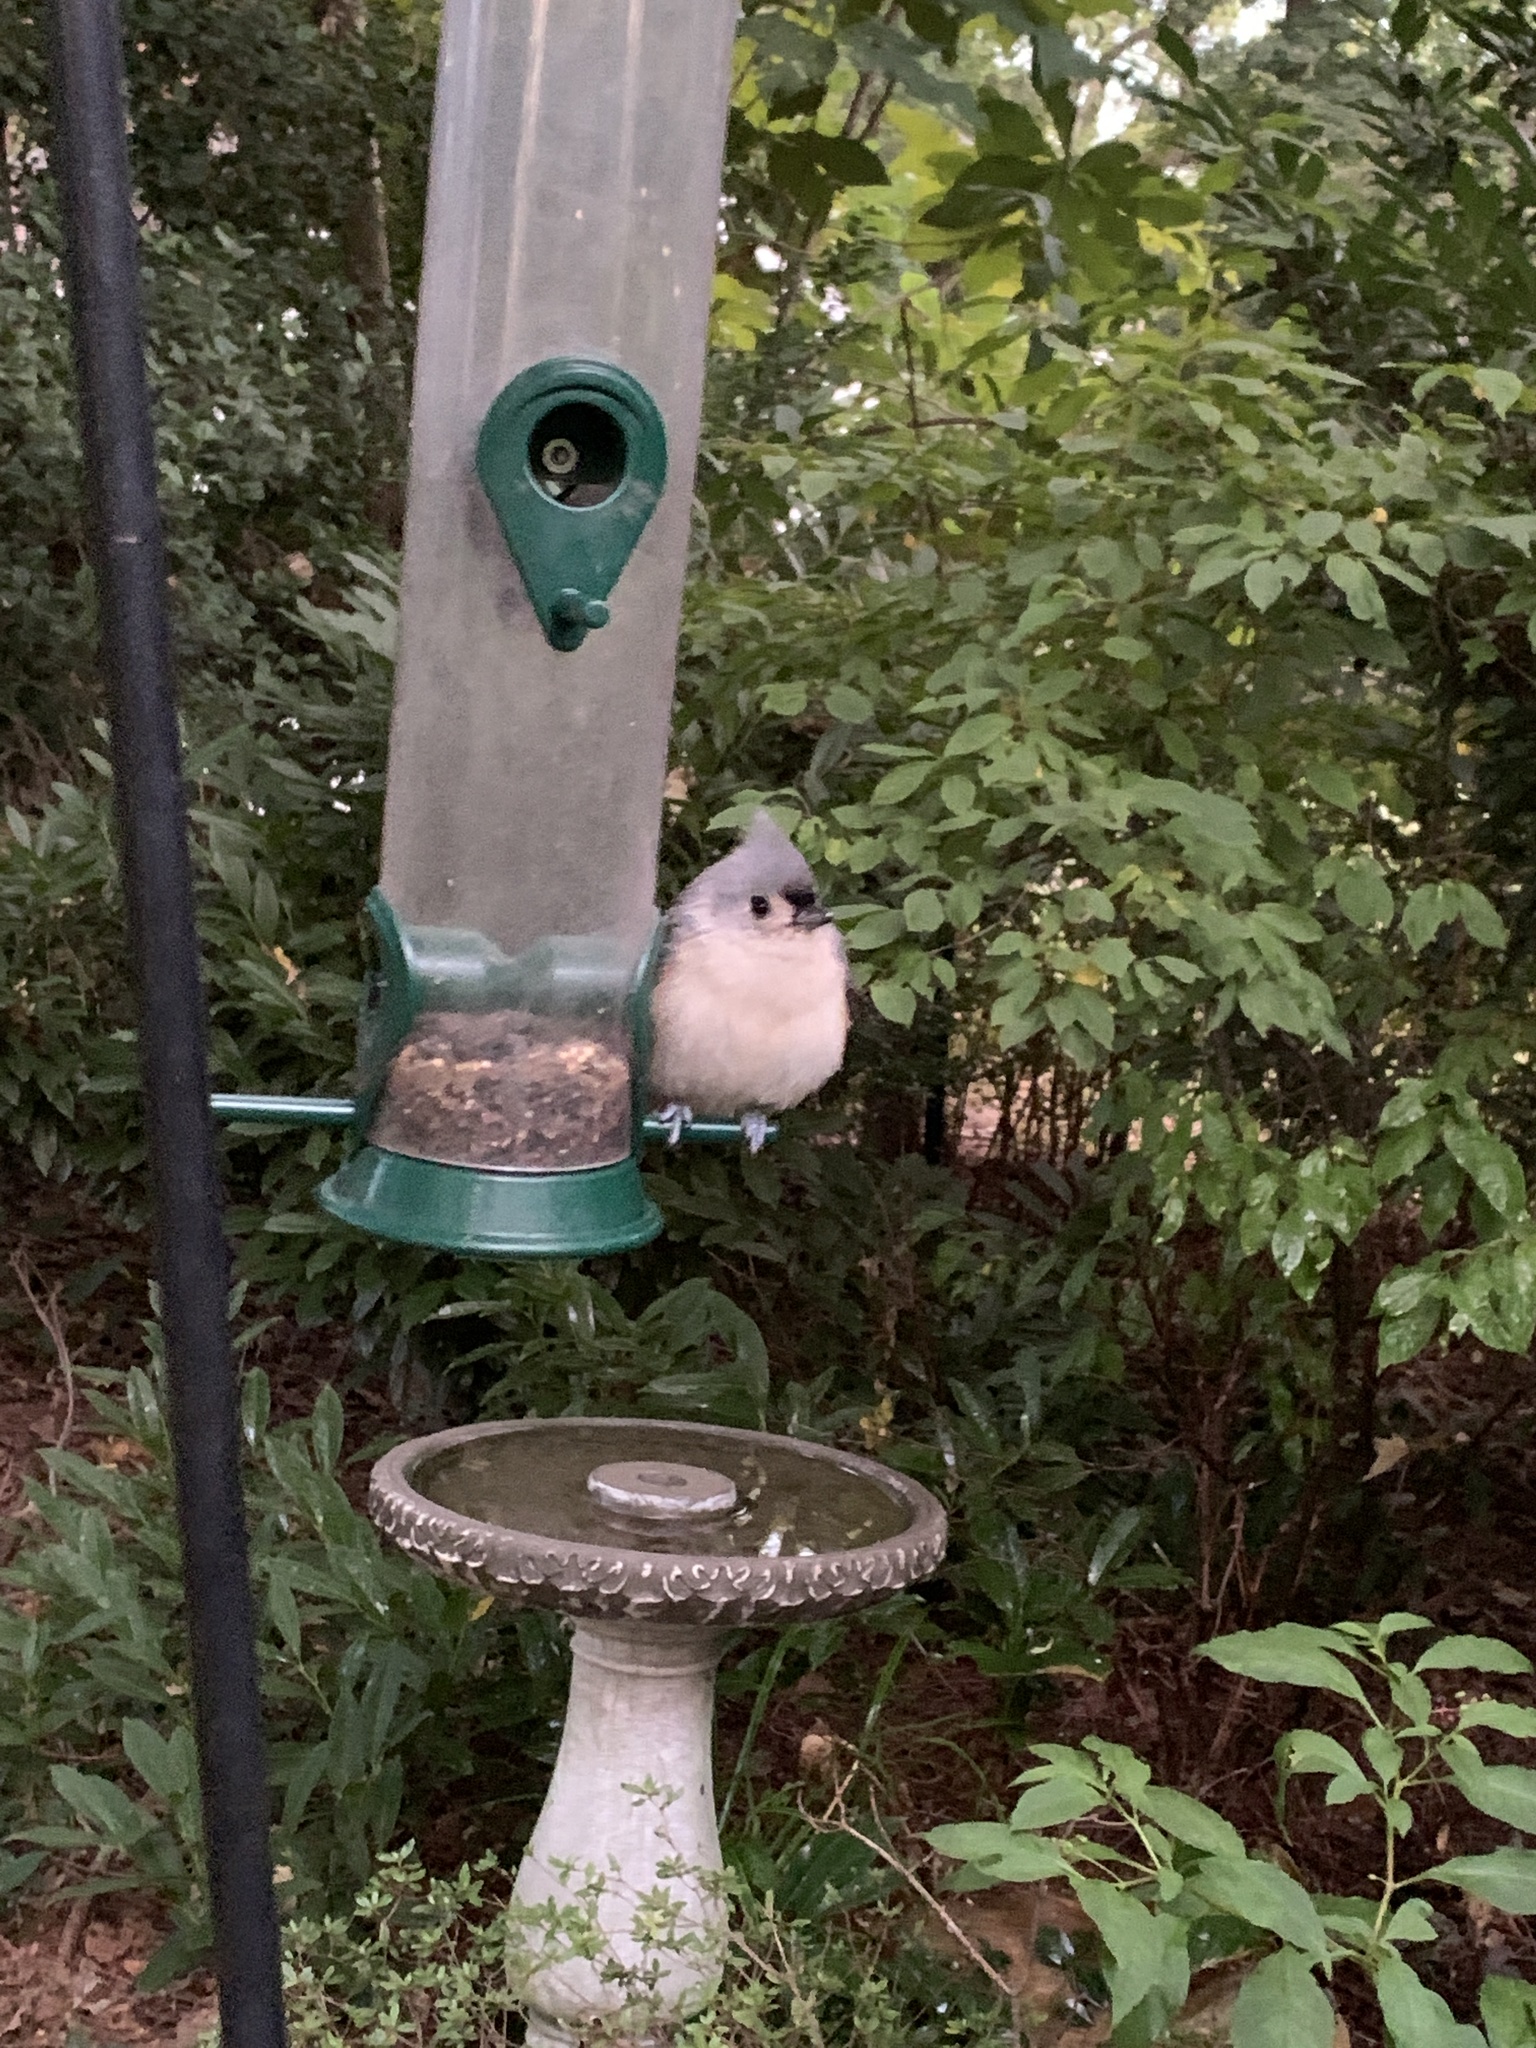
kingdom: Animalia
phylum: Chordata
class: Aves
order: Passeriformes
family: Paridae
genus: Baeolophus
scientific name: Baeolophus bicolor
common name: Tufted titmouse
